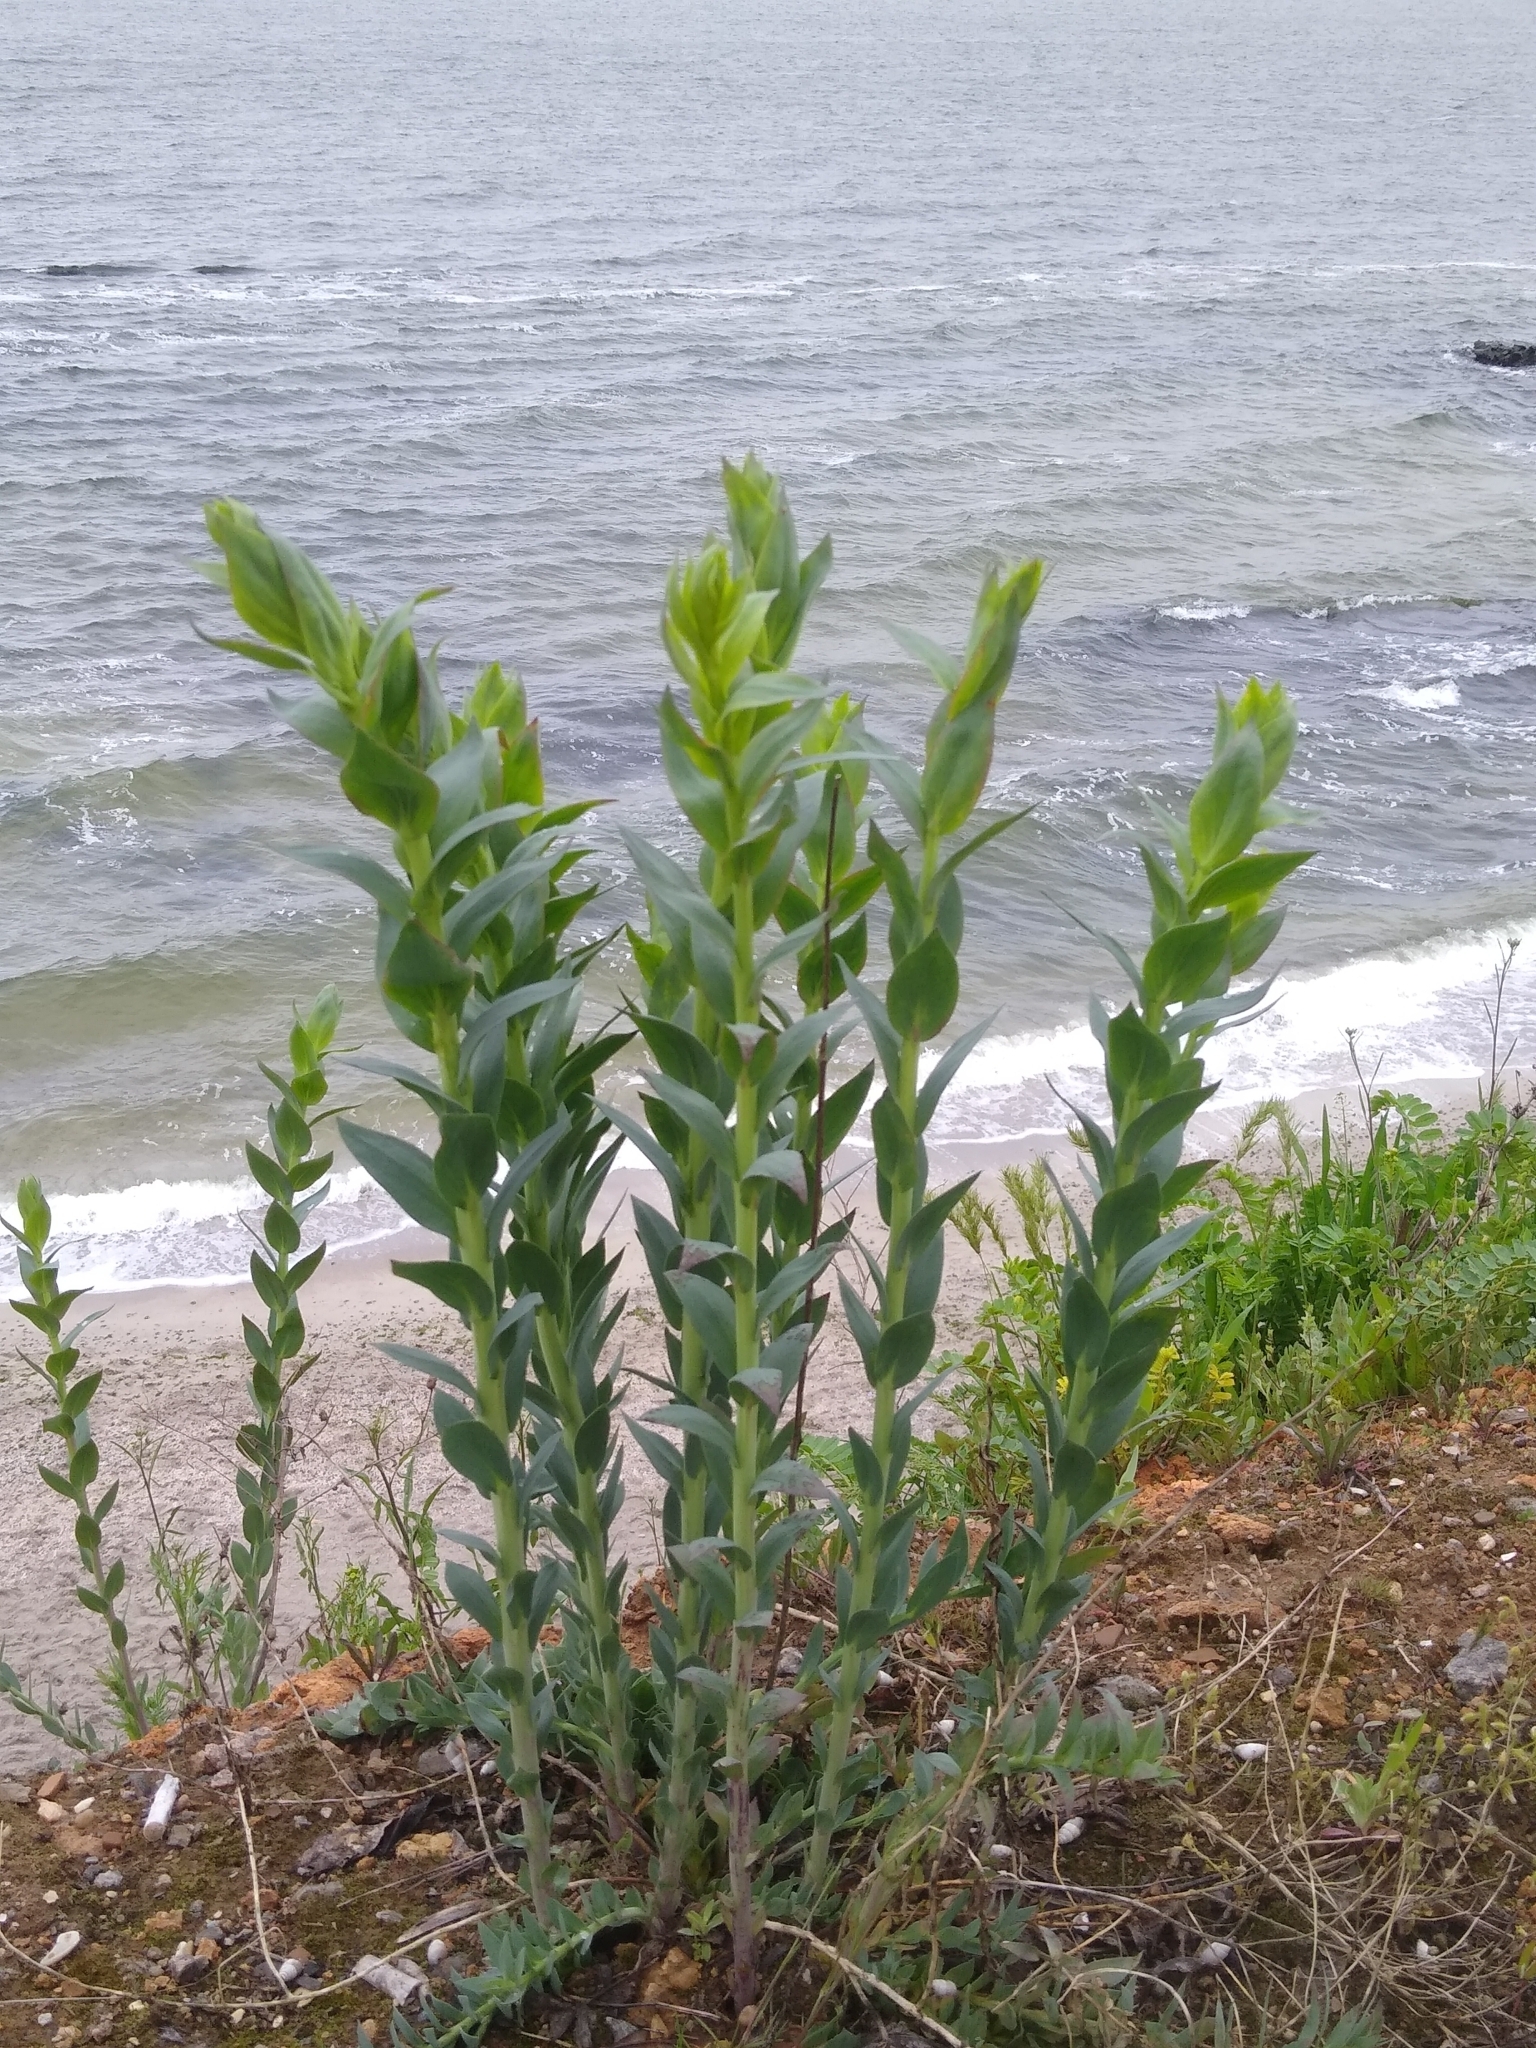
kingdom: Plantae
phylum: Tracheophyta
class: Magnoliopsida
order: Lamiales
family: Plantaginaceae
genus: Linaria
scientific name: Linaria genistifolia
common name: Broomleaf toadflax
